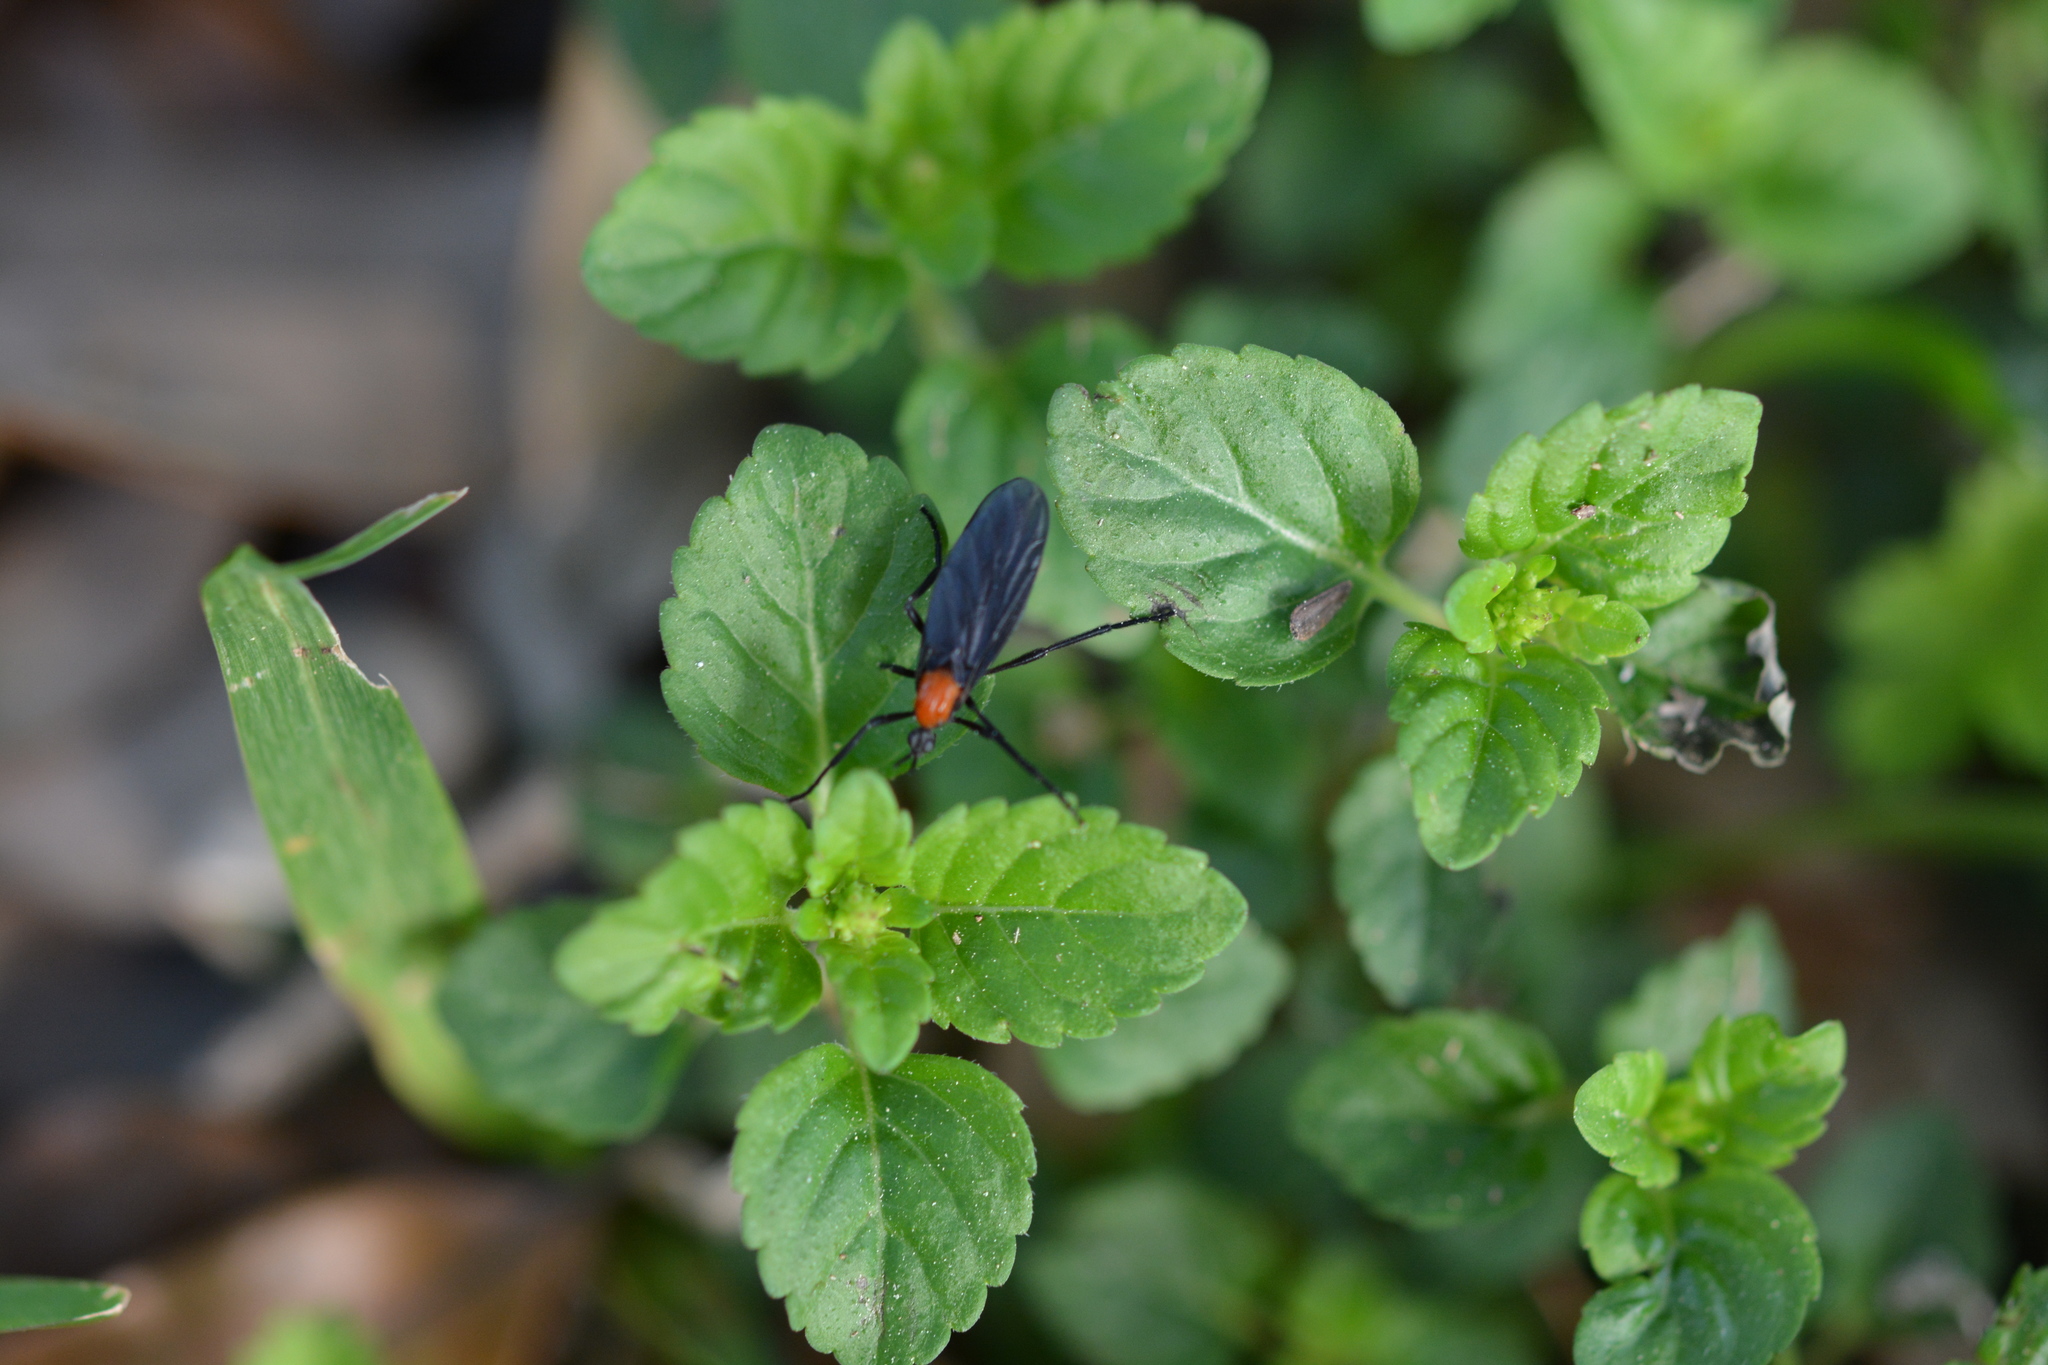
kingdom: Animalia
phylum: Arthropoda
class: Insecta
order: Diptera
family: Bibionidae
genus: Plecia
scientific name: Plecia nearctica
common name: March fly
